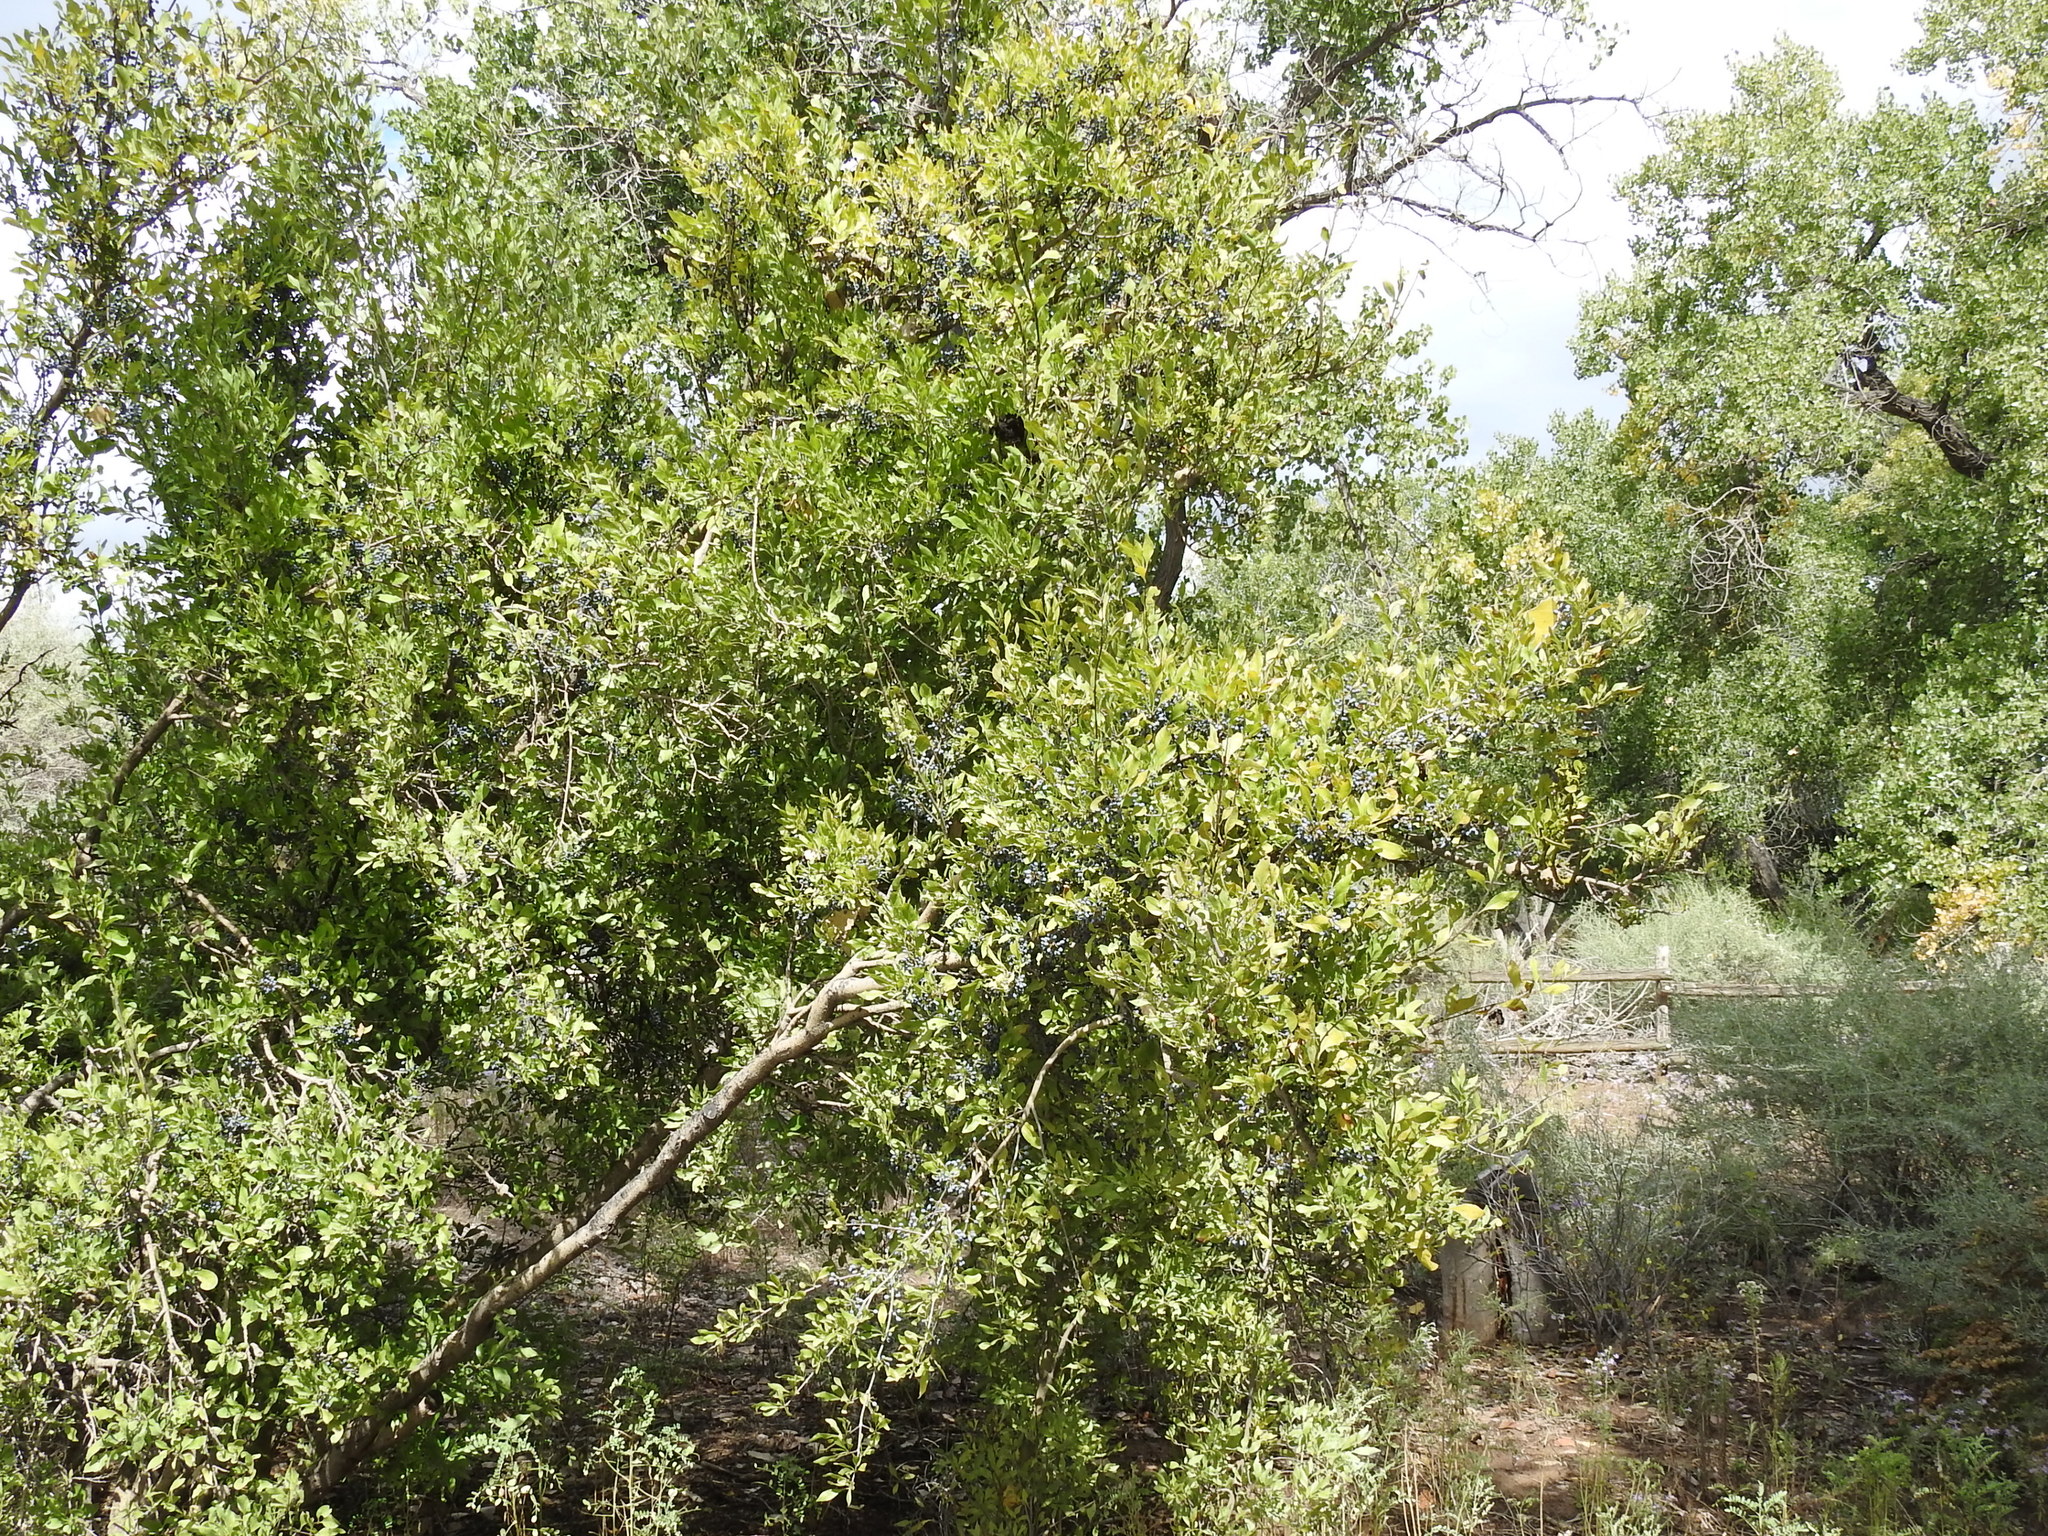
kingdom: Plantae
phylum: Tracheophyta
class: Magnoliopsida
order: Lamiales
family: Oleaceae
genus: Forestiera
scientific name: Forestiera pubescens
